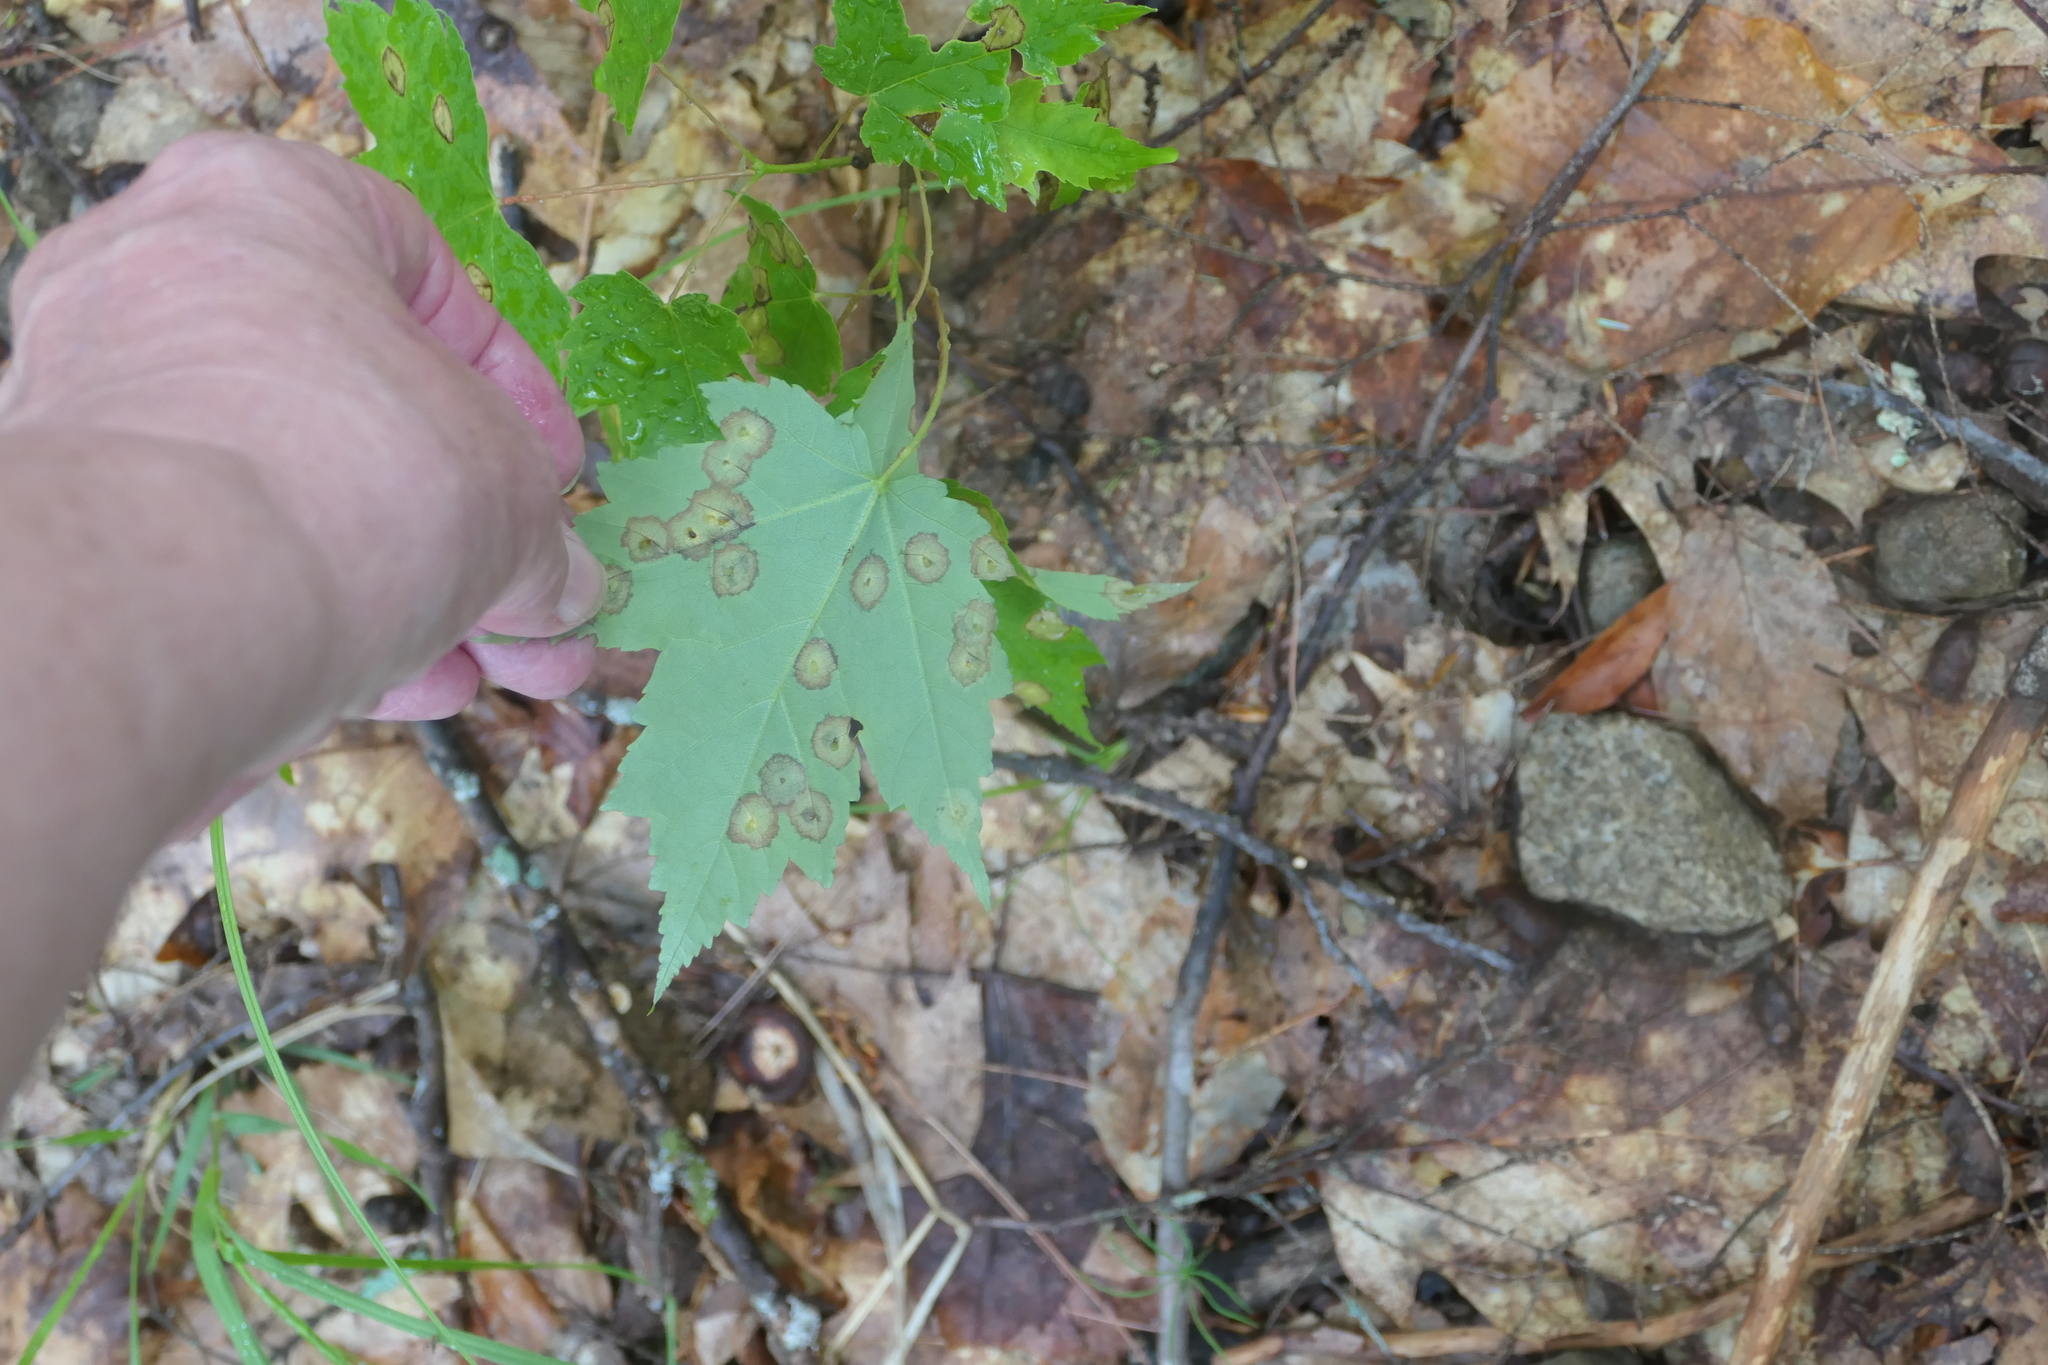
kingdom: Animalia
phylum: Arthropoda
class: Insecta
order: Diptera
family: Cecidomyiidae
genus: Acericecis
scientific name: Acericecis ocellaris
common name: Ocellate gall midge
